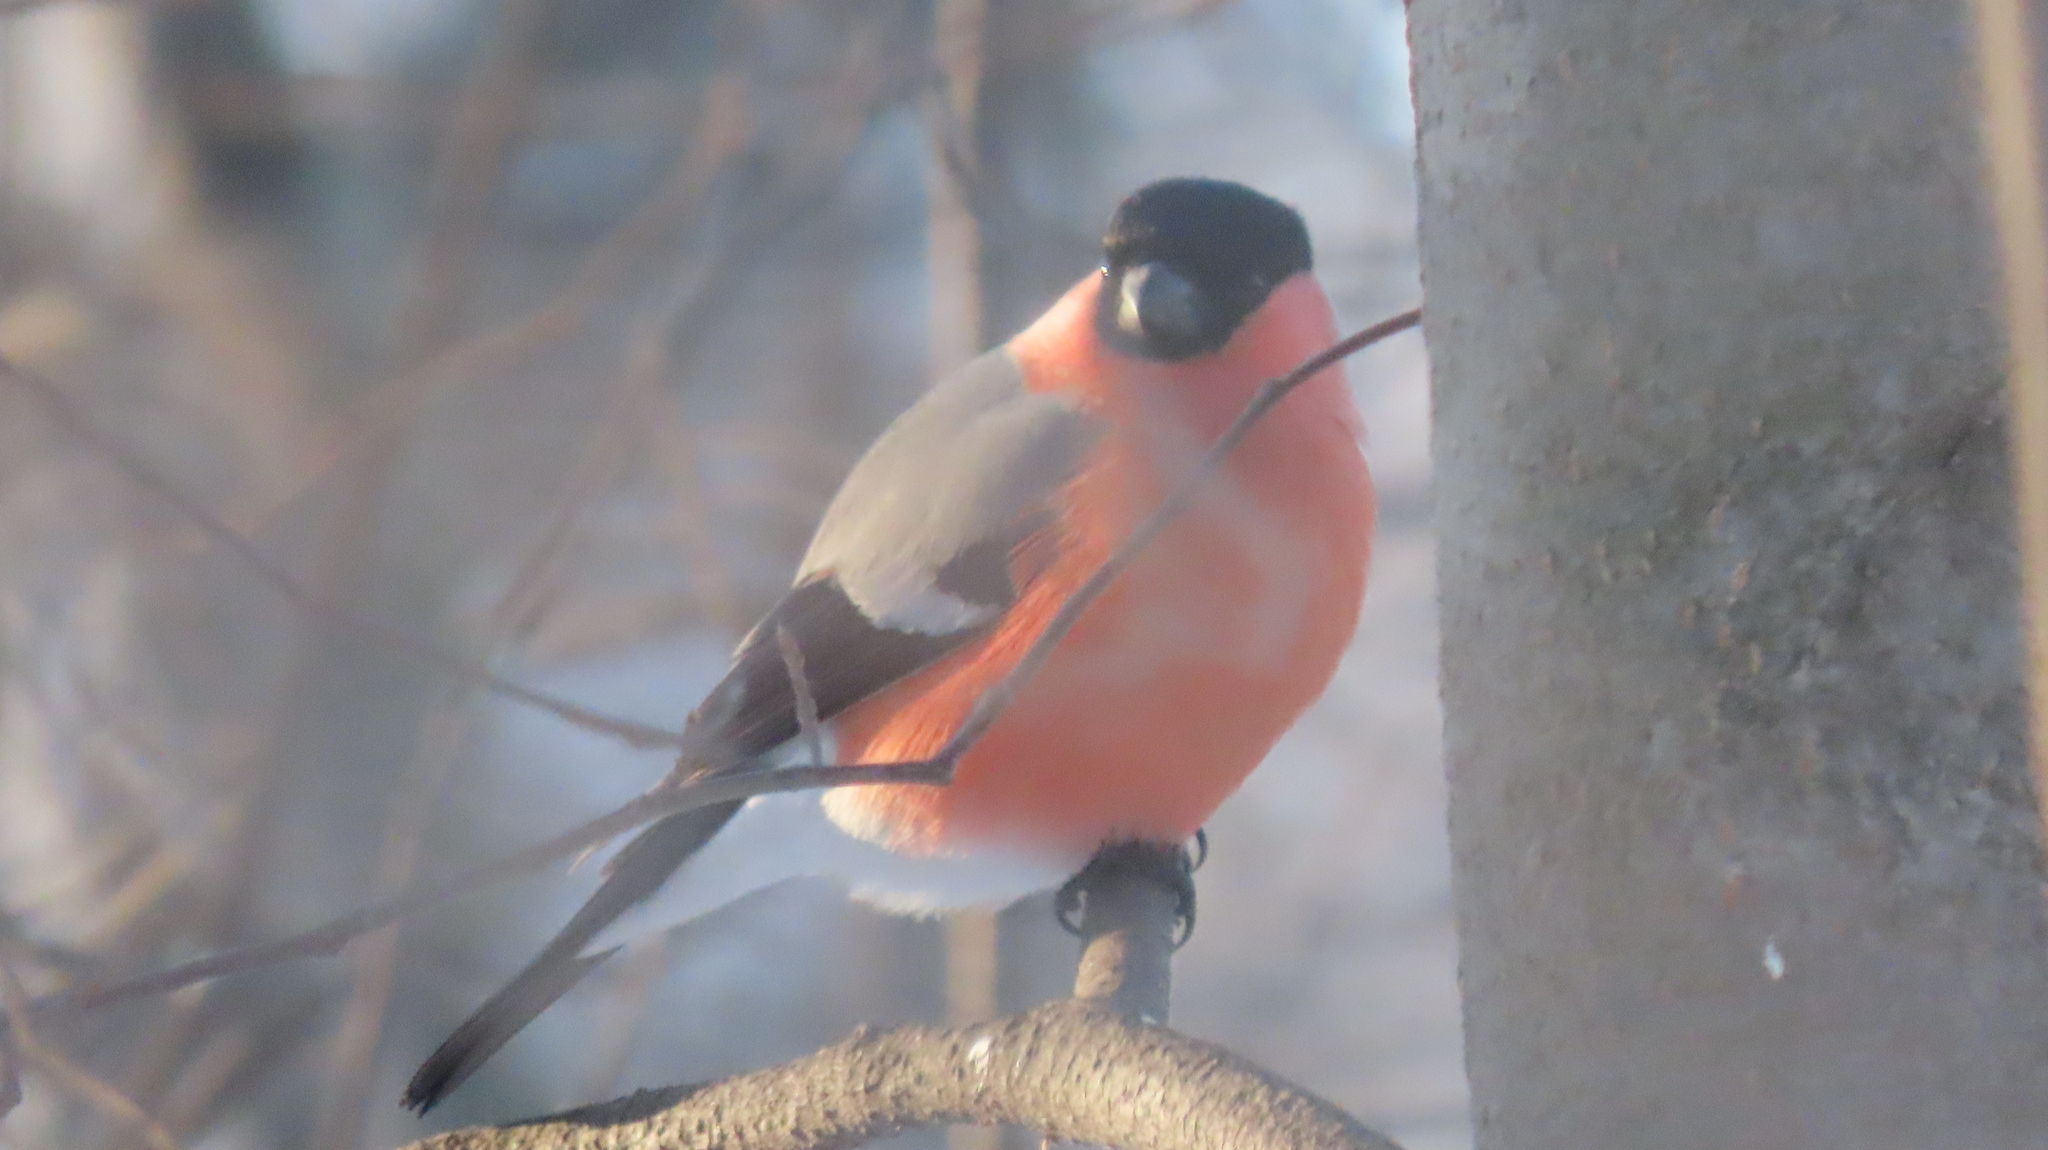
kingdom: Animalia
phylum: Chordata
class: Aves
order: Passeriformes
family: Fringillidae
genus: Pyrrhula
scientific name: Pyrrhula pyrrhula
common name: Eurasian bullfinch
